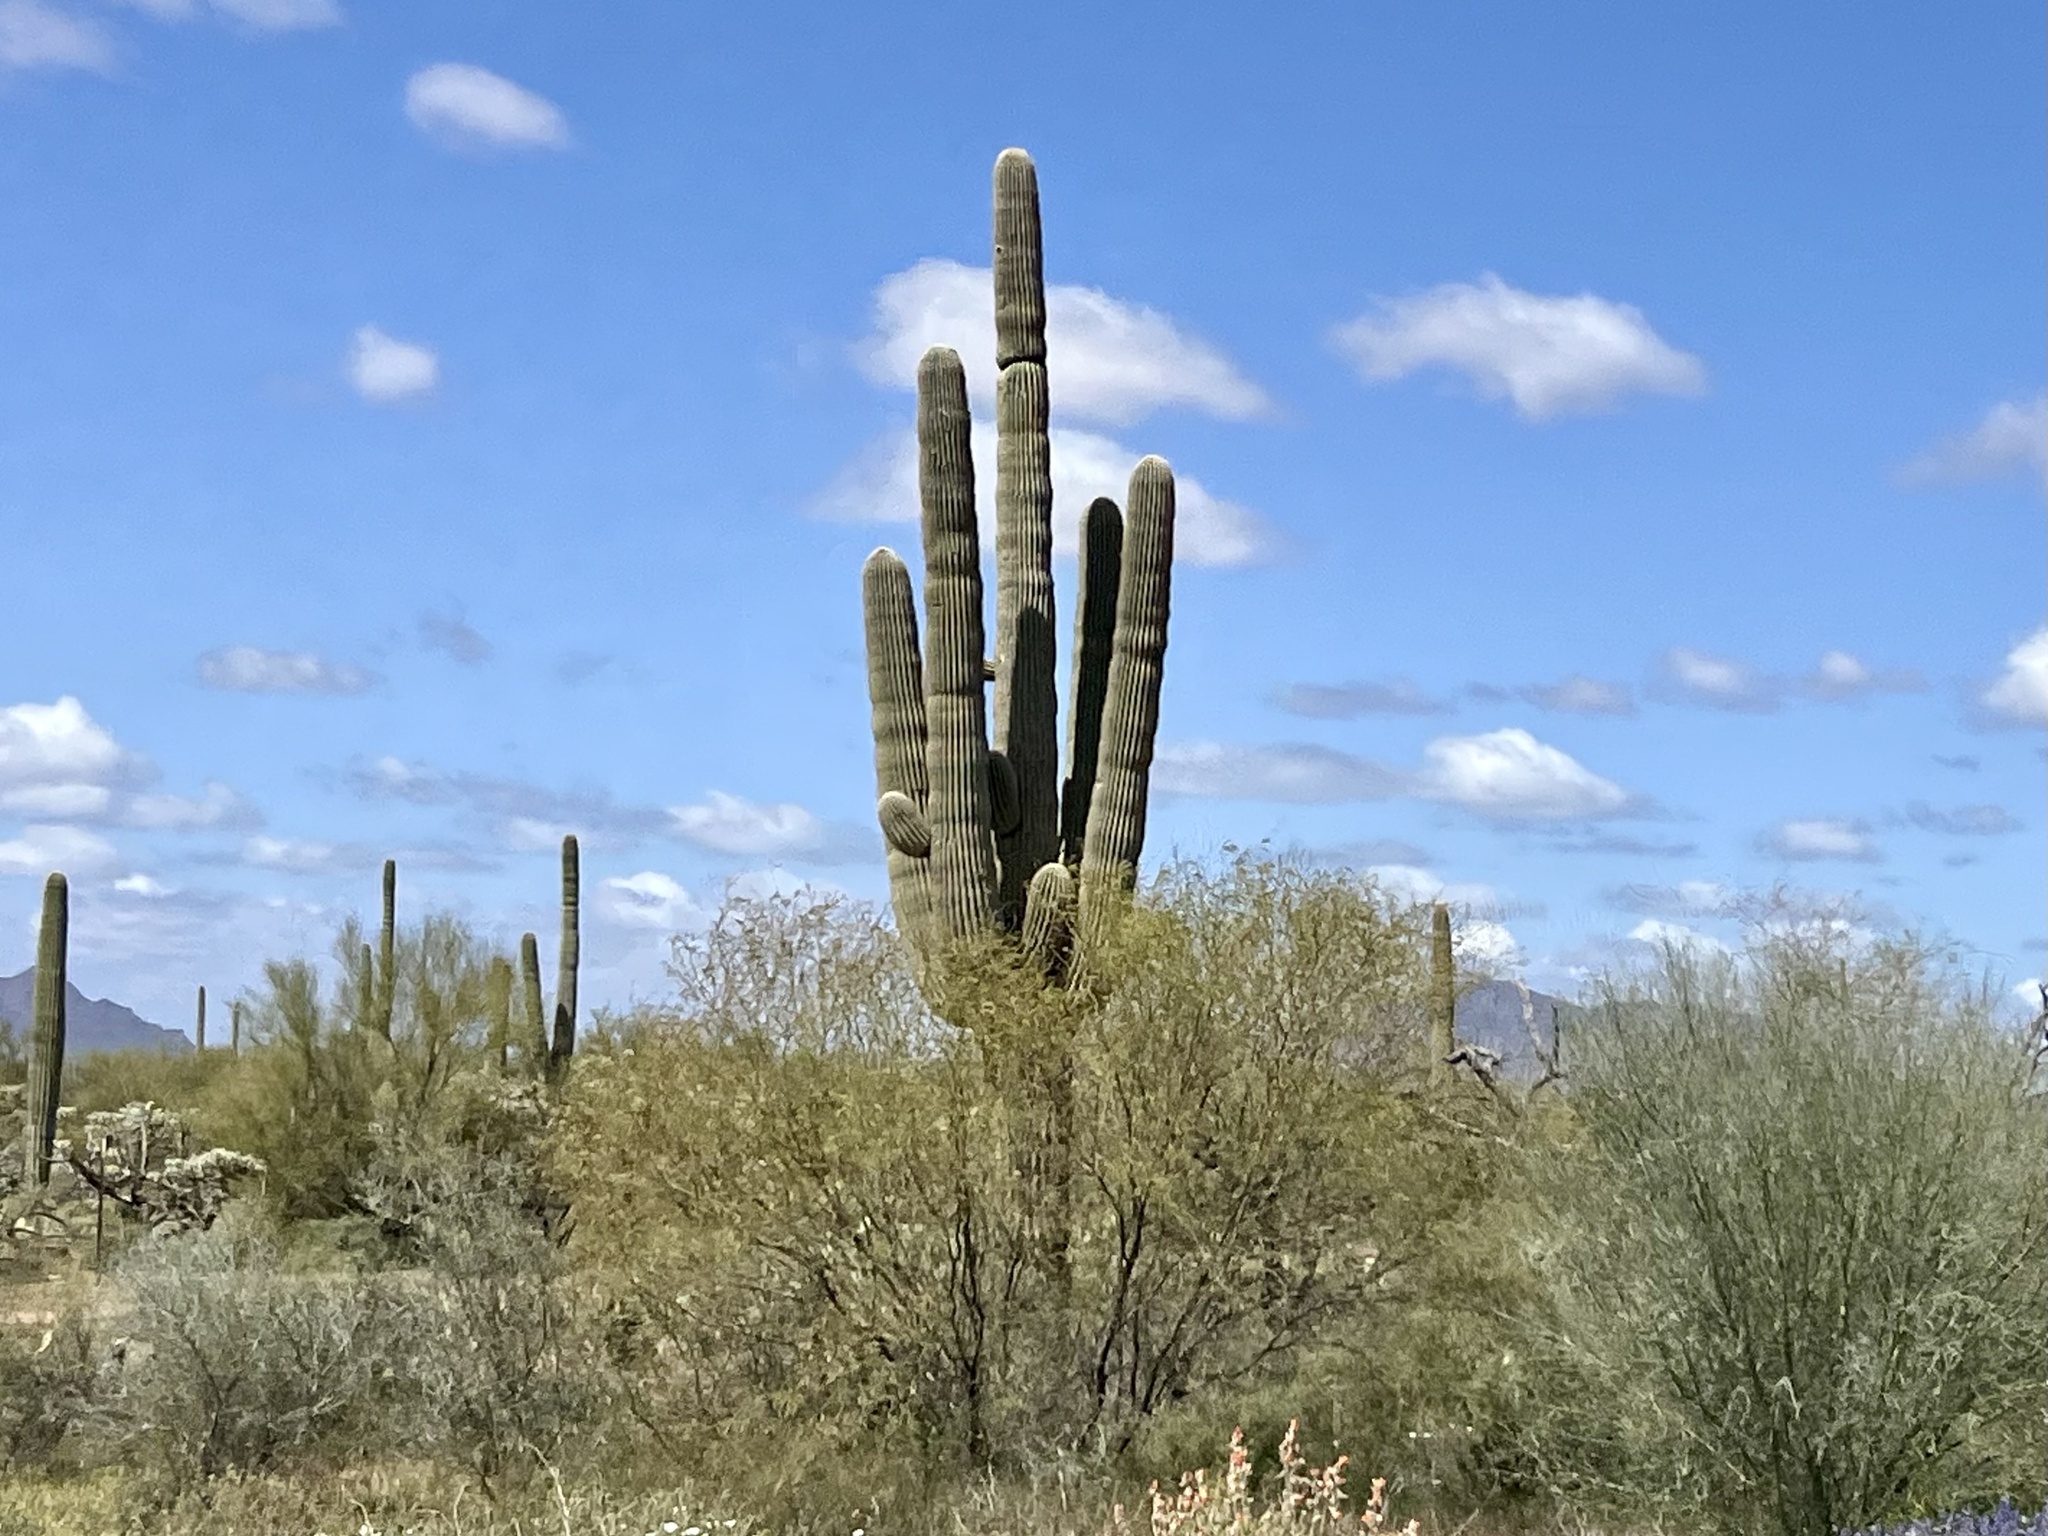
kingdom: Plantae
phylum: Tracheophyta
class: Magnoliopsida
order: Caryophyllales
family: Cactaceae
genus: Carnegiea
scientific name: Carnegiea gigantea
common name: Saguaro
